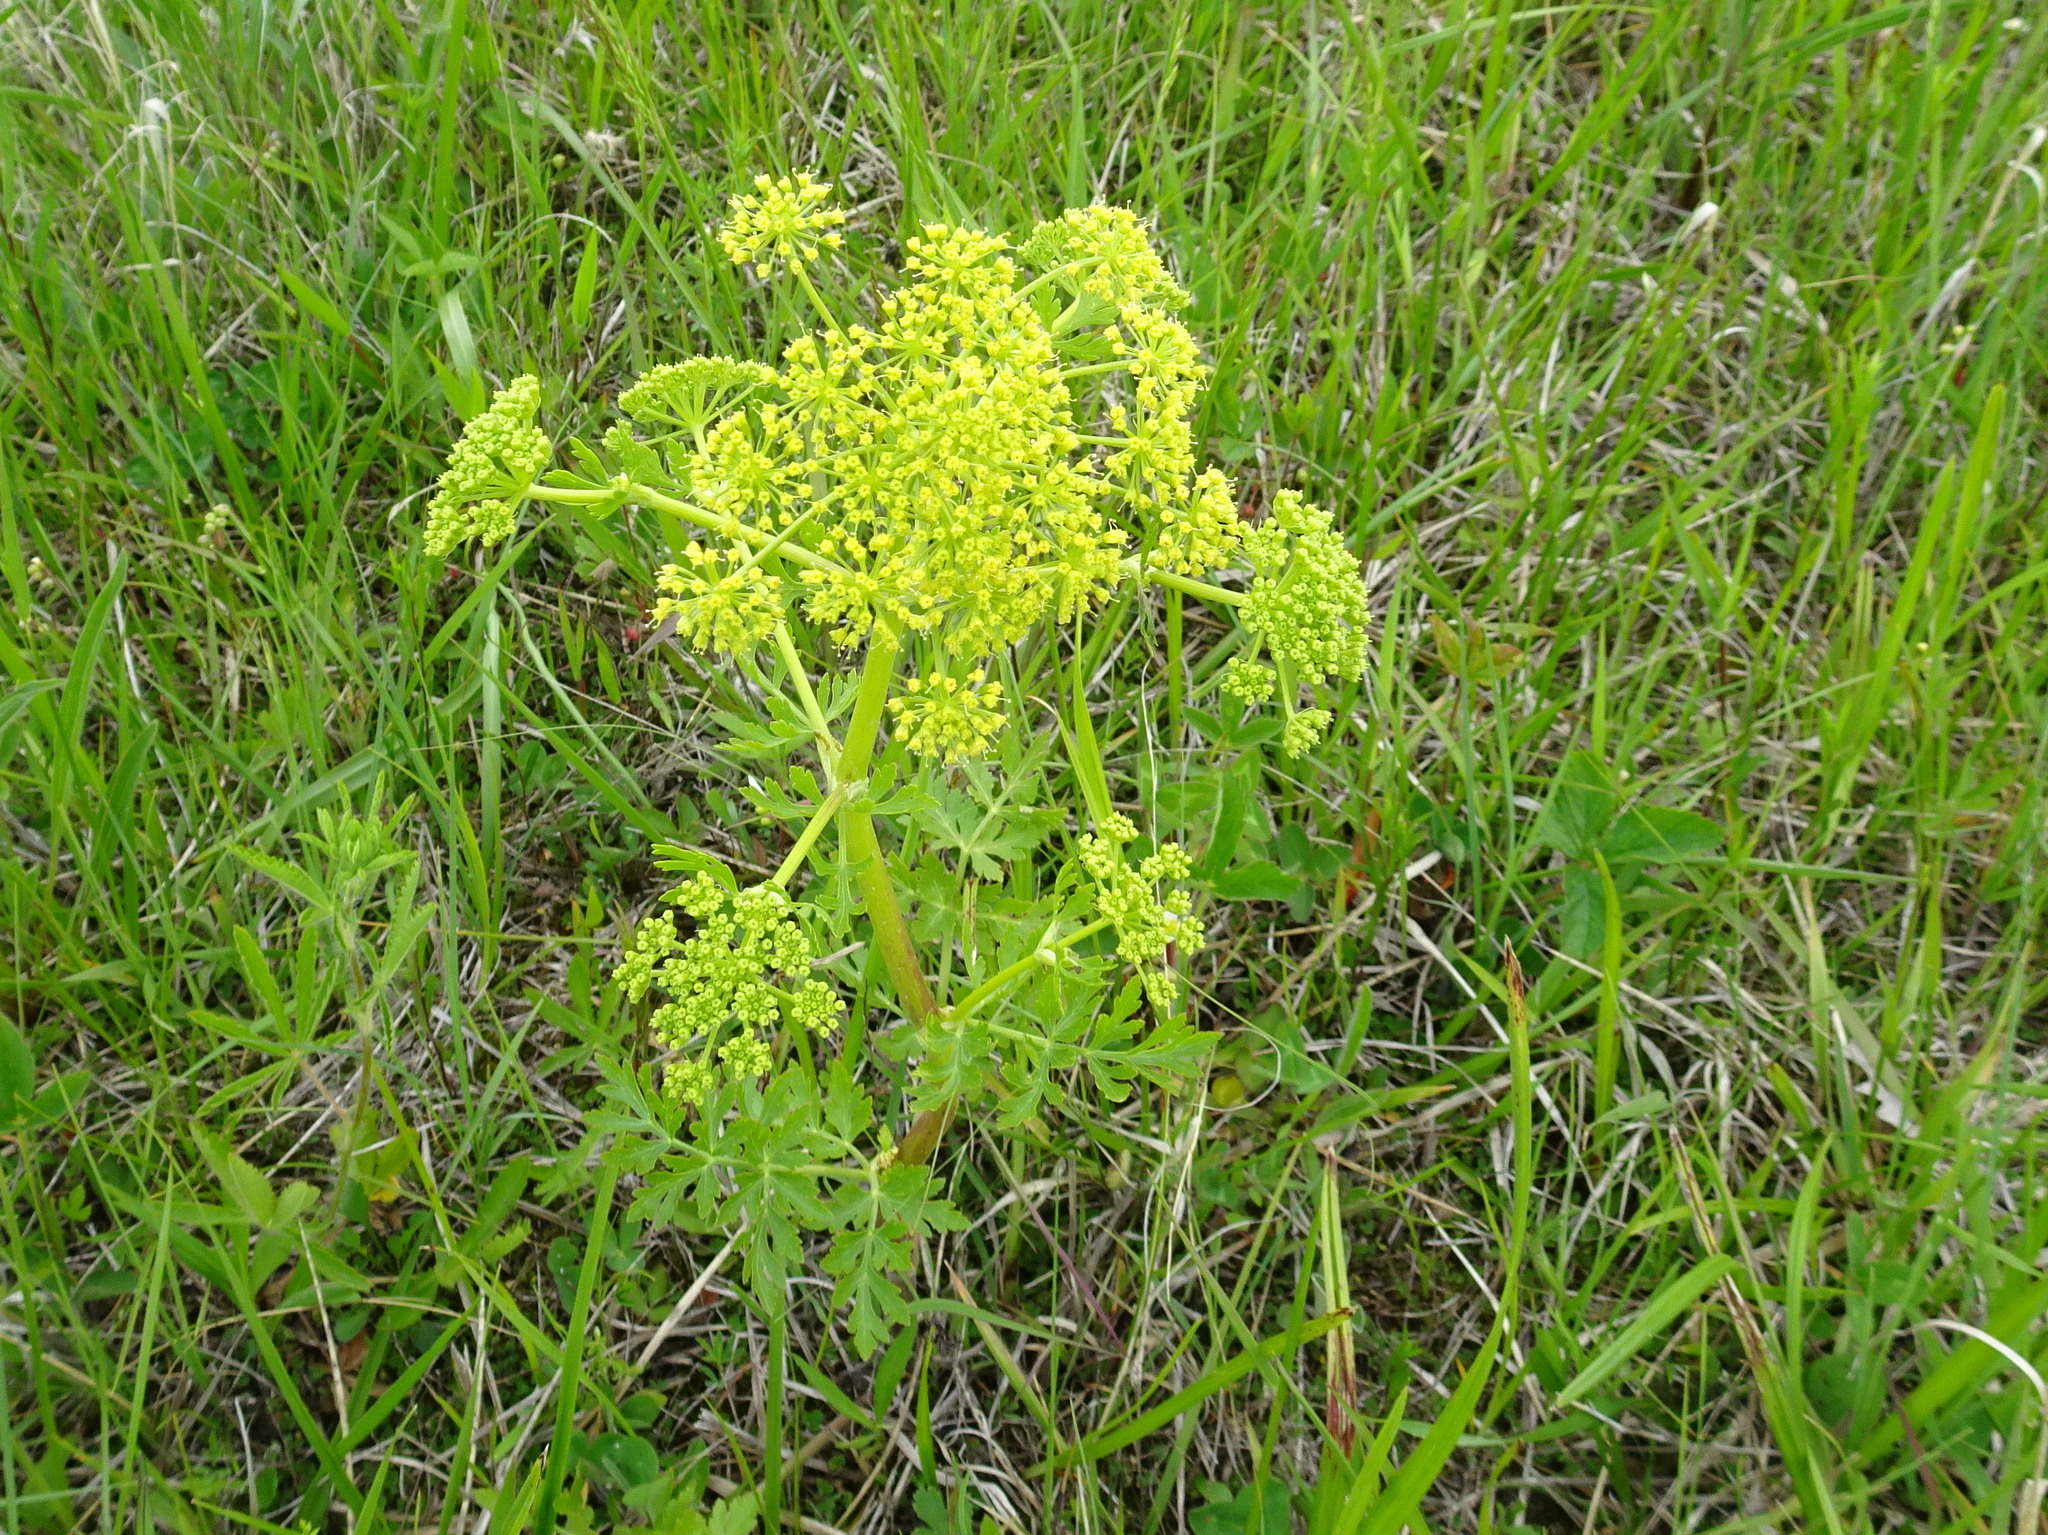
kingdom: Plantae
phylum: Tracheophyta
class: Magnoliopsida
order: Apiales
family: Apiaceae
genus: Polytaenia
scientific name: Polytaenia nuttallii
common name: Prairie-parsley
